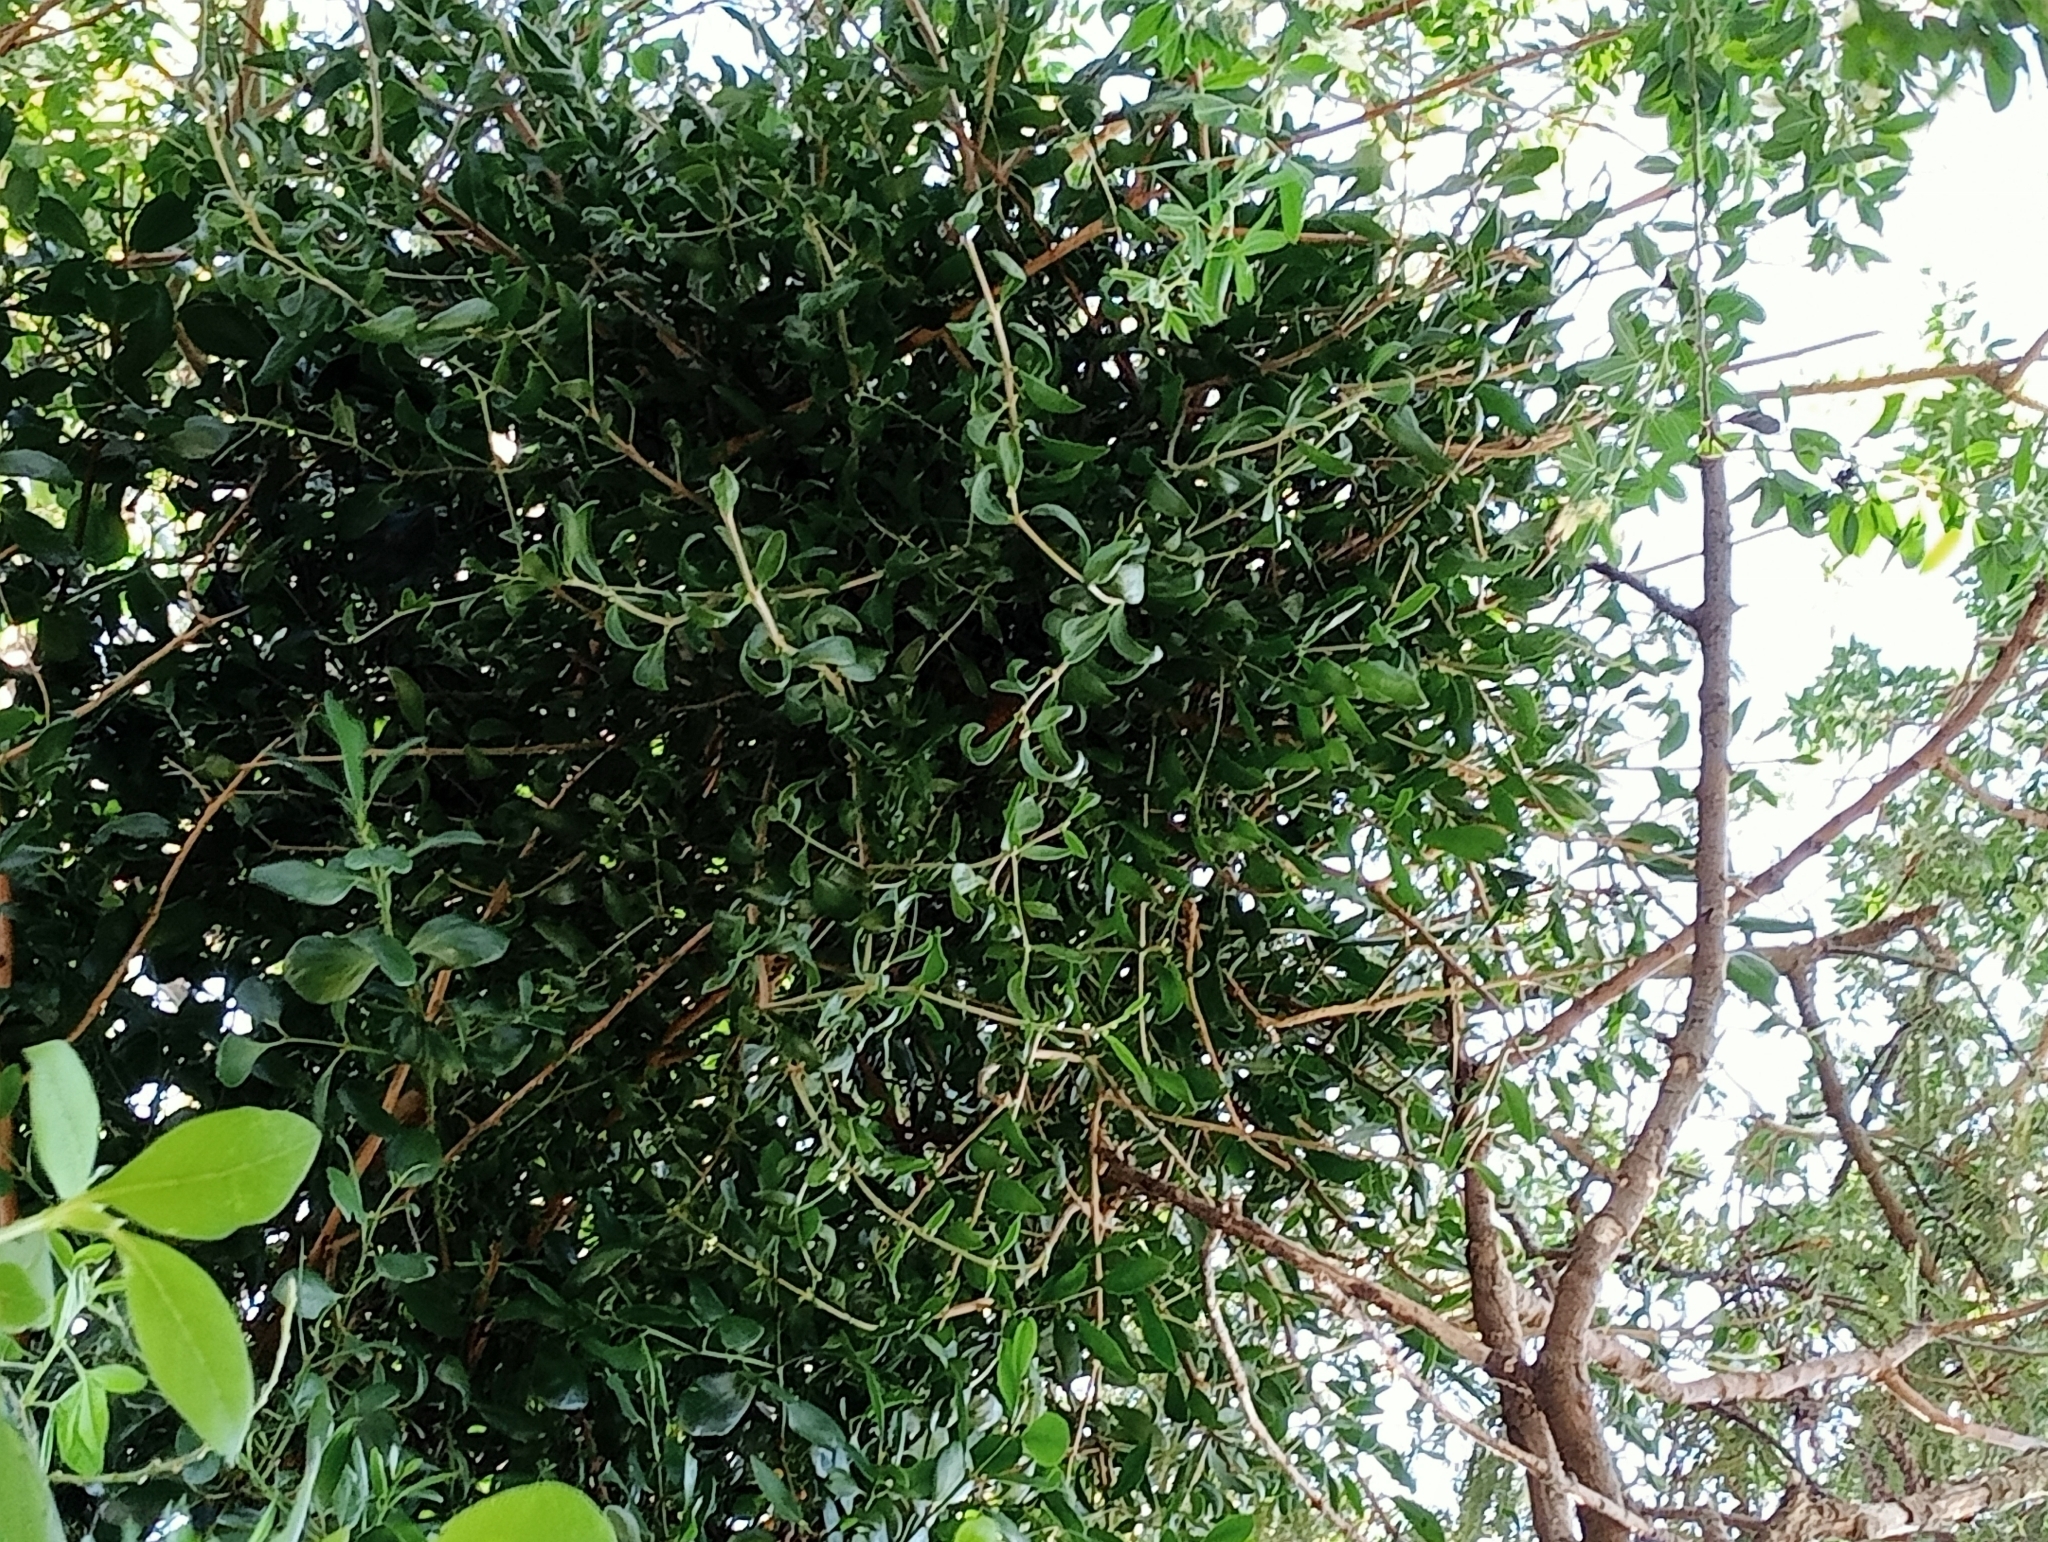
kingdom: Plantae
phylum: Tracheophyta
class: Magnoliopsida
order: Santalales
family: Loranthaceae
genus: Tupeia
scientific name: Tupeia antarctica
